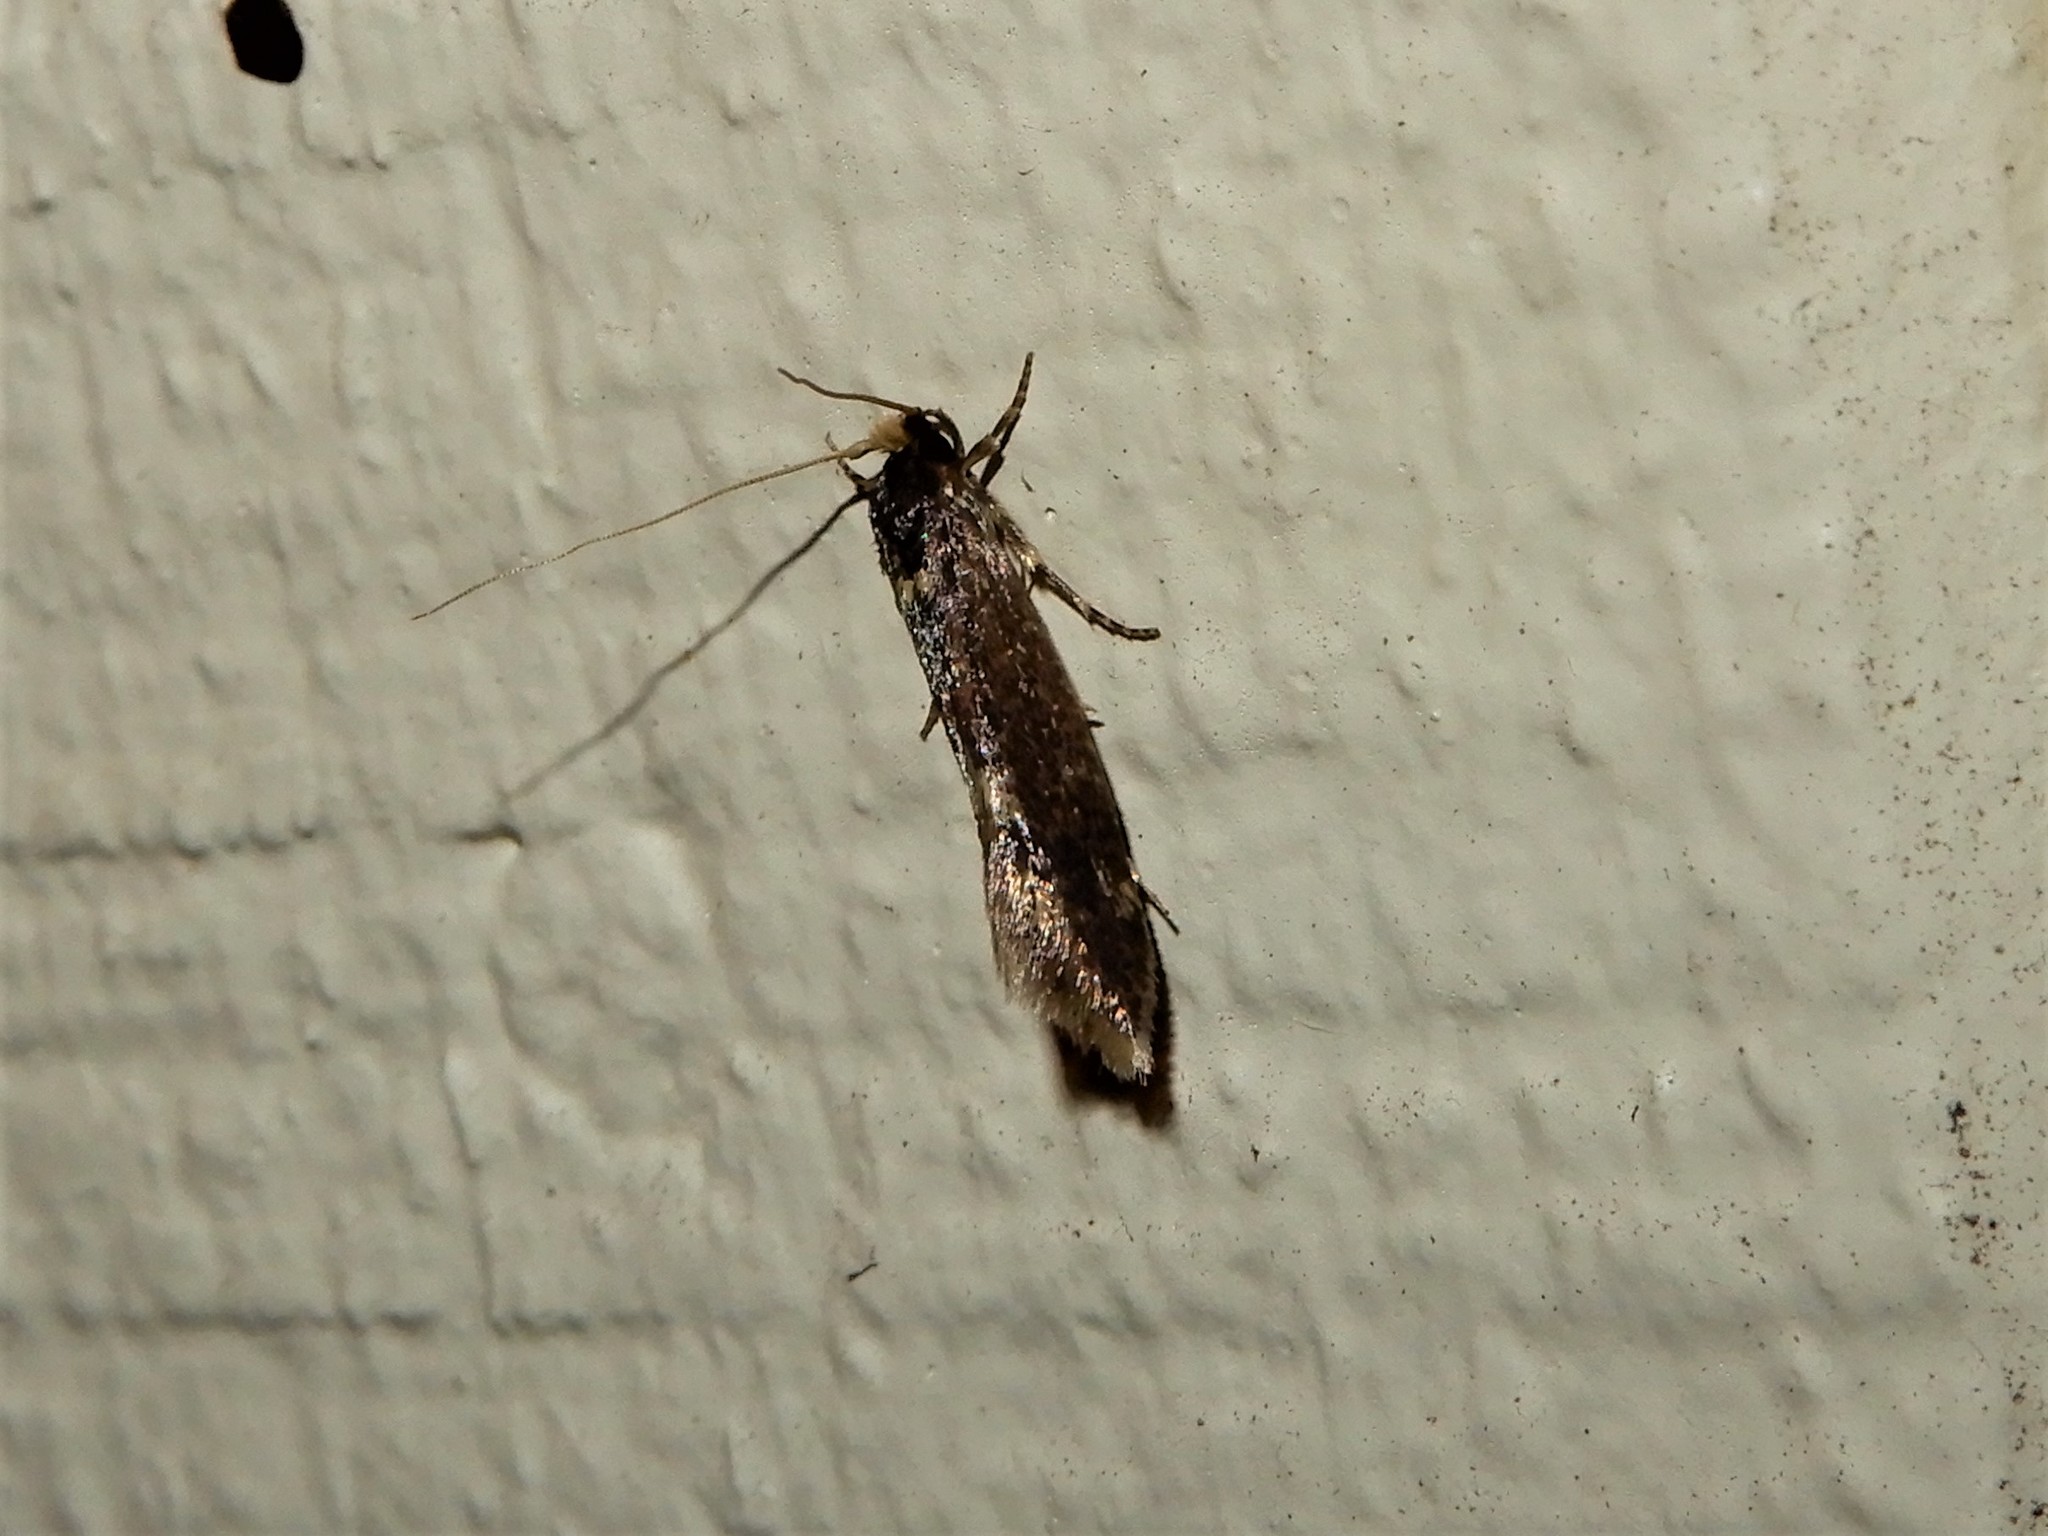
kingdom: Animalia
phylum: Arthropoda
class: Insecta
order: Lepidoptera
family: Tineidae
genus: Opogona
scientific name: Opogona omoscopa
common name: Moth
